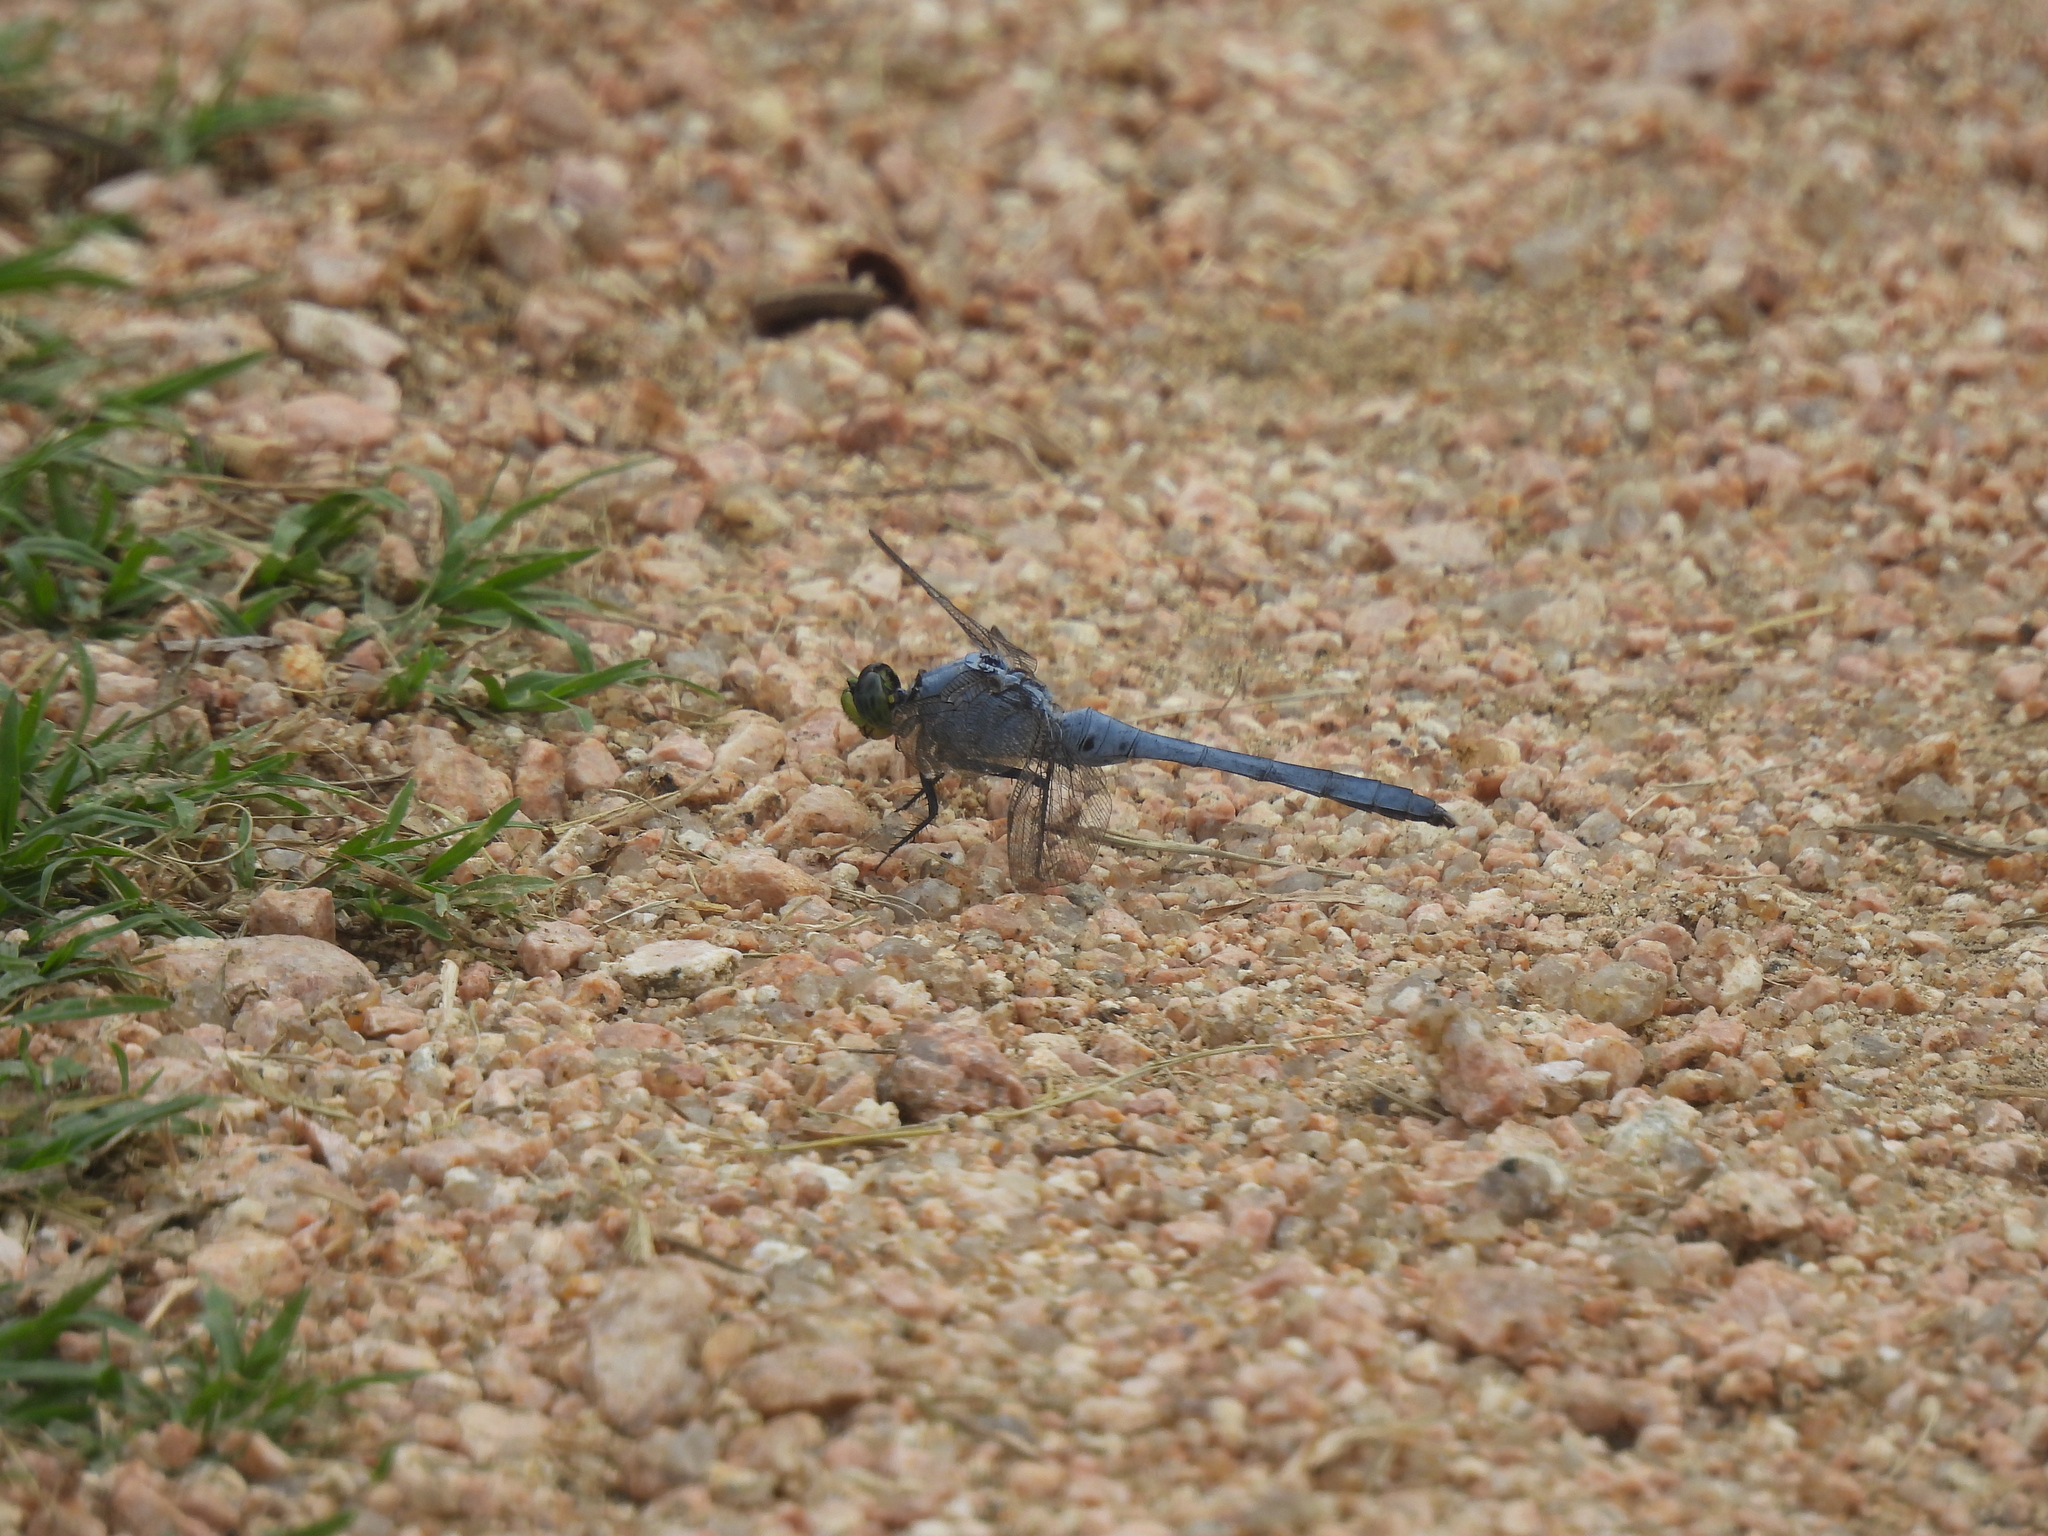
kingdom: Animalia
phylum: Arthropoda
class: Insecta
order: Odonata
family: Libellulidae
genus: Erythemis
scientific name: Erythemis simplicicollis
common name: Eastern pondhawk
